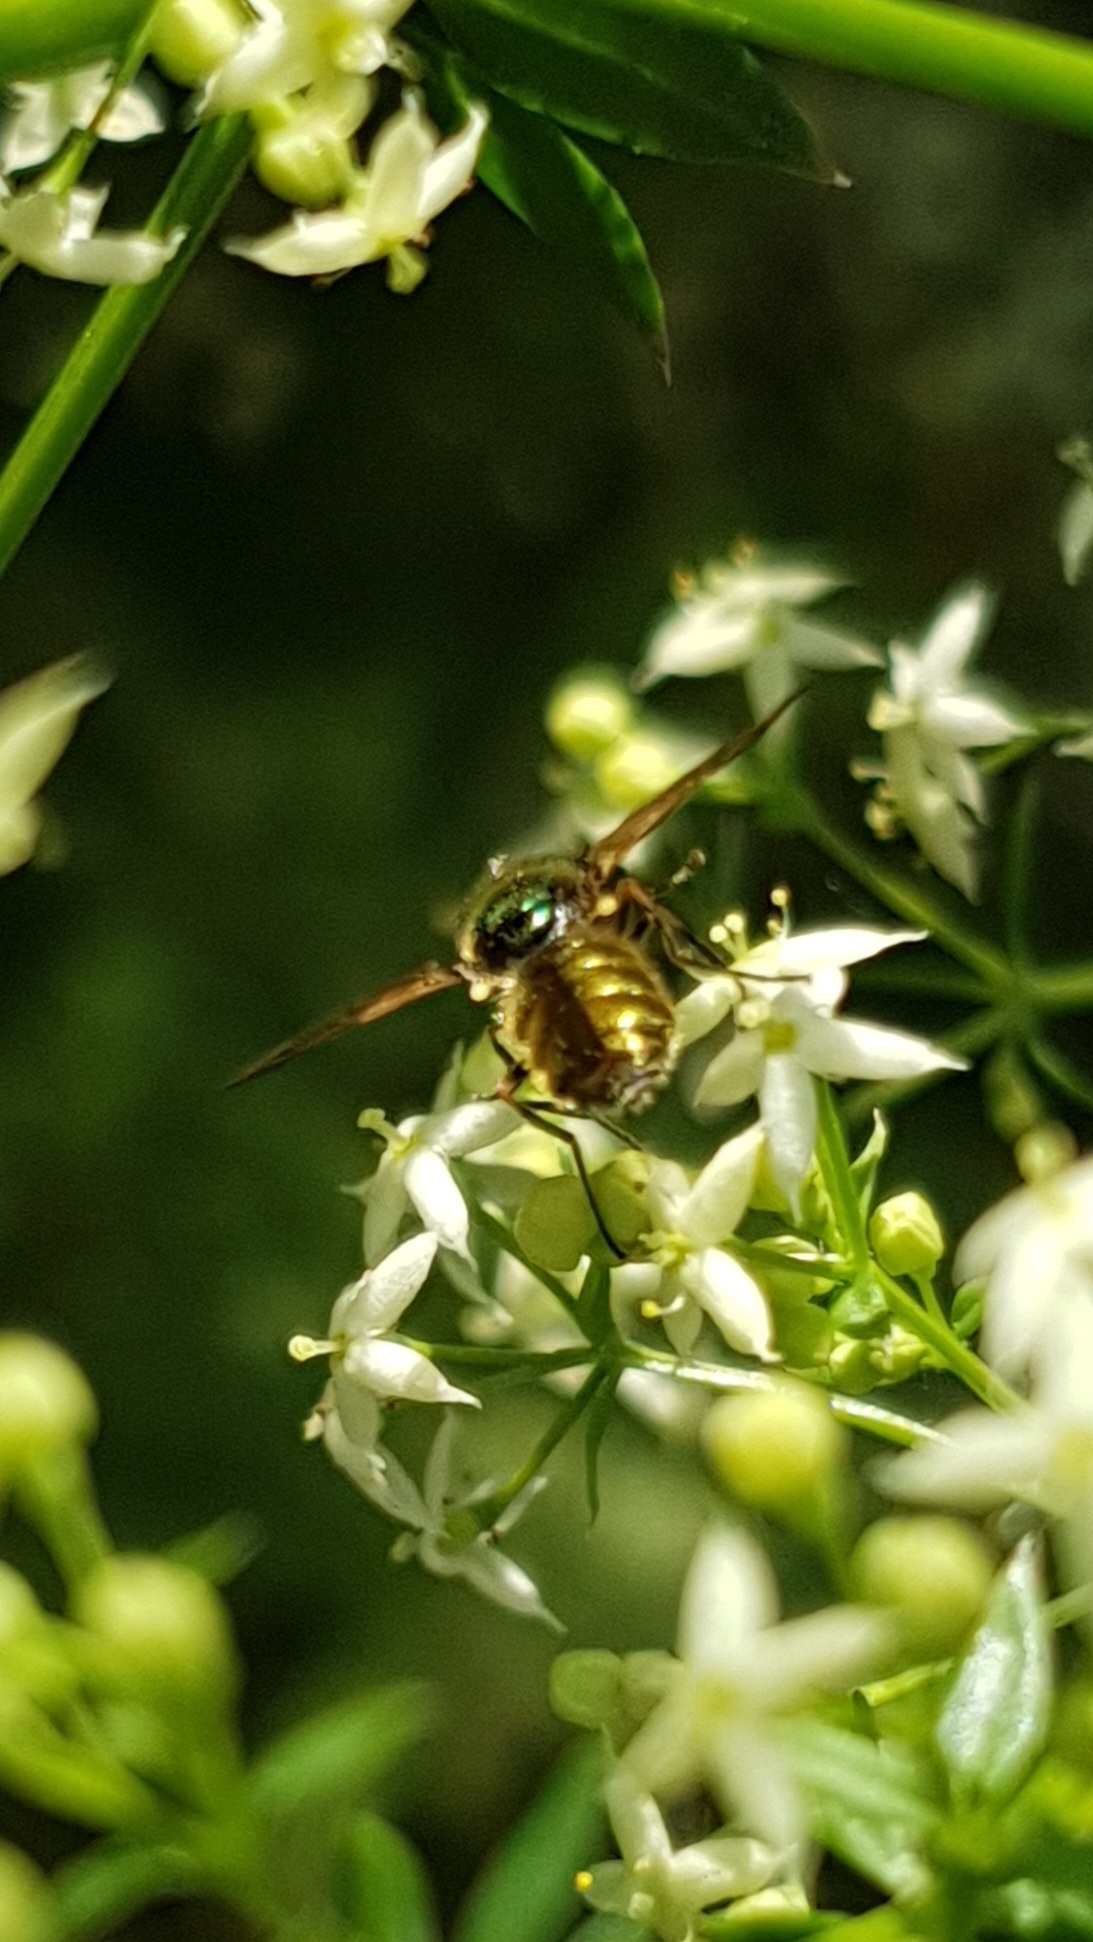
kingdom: Animalia
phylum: Arthropoda
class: Insecta
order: Diptera
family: Stratiomyidae
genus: Chloromyia
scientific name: Chloromyia formosa
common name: Soldier fly
